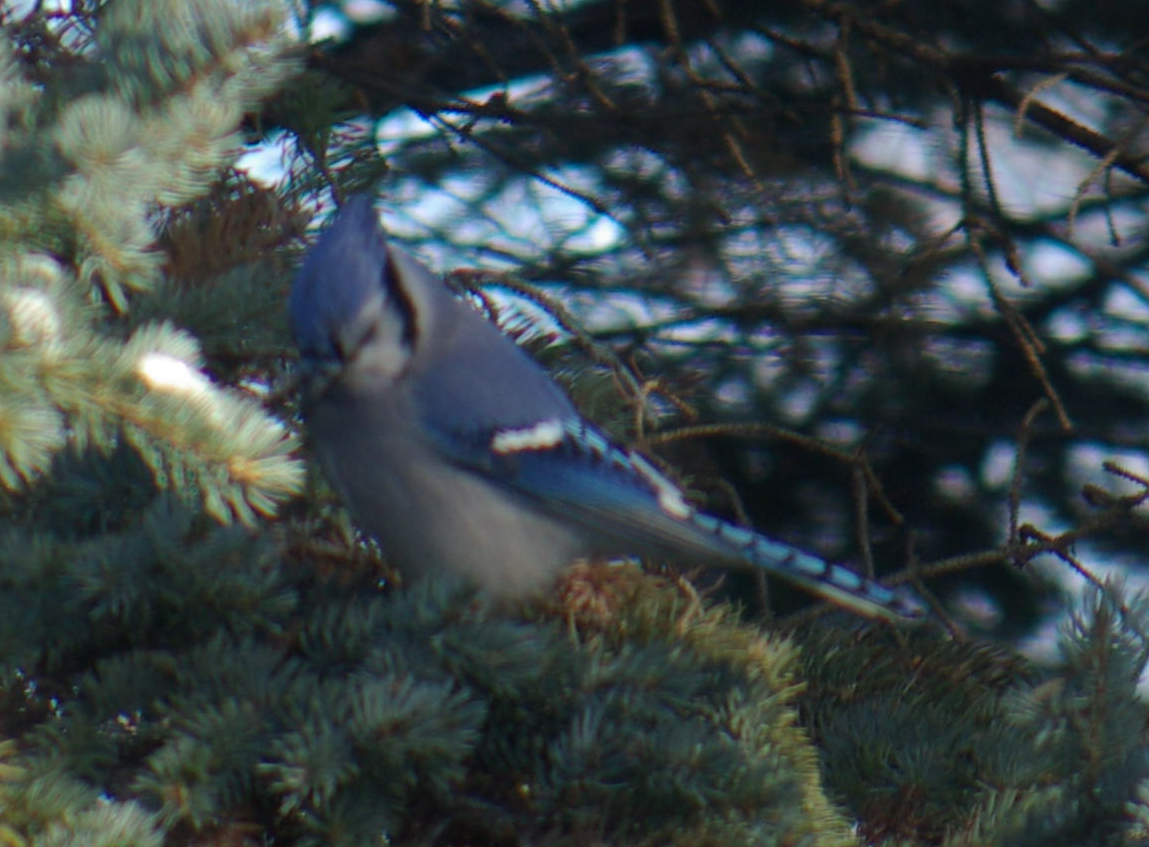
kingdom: Animalia
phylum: Chordata
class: Aves
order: Passeriformes
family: Corvidae
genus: Cyanocitta
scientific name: Cyanocitta cristata
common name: Blue jay
